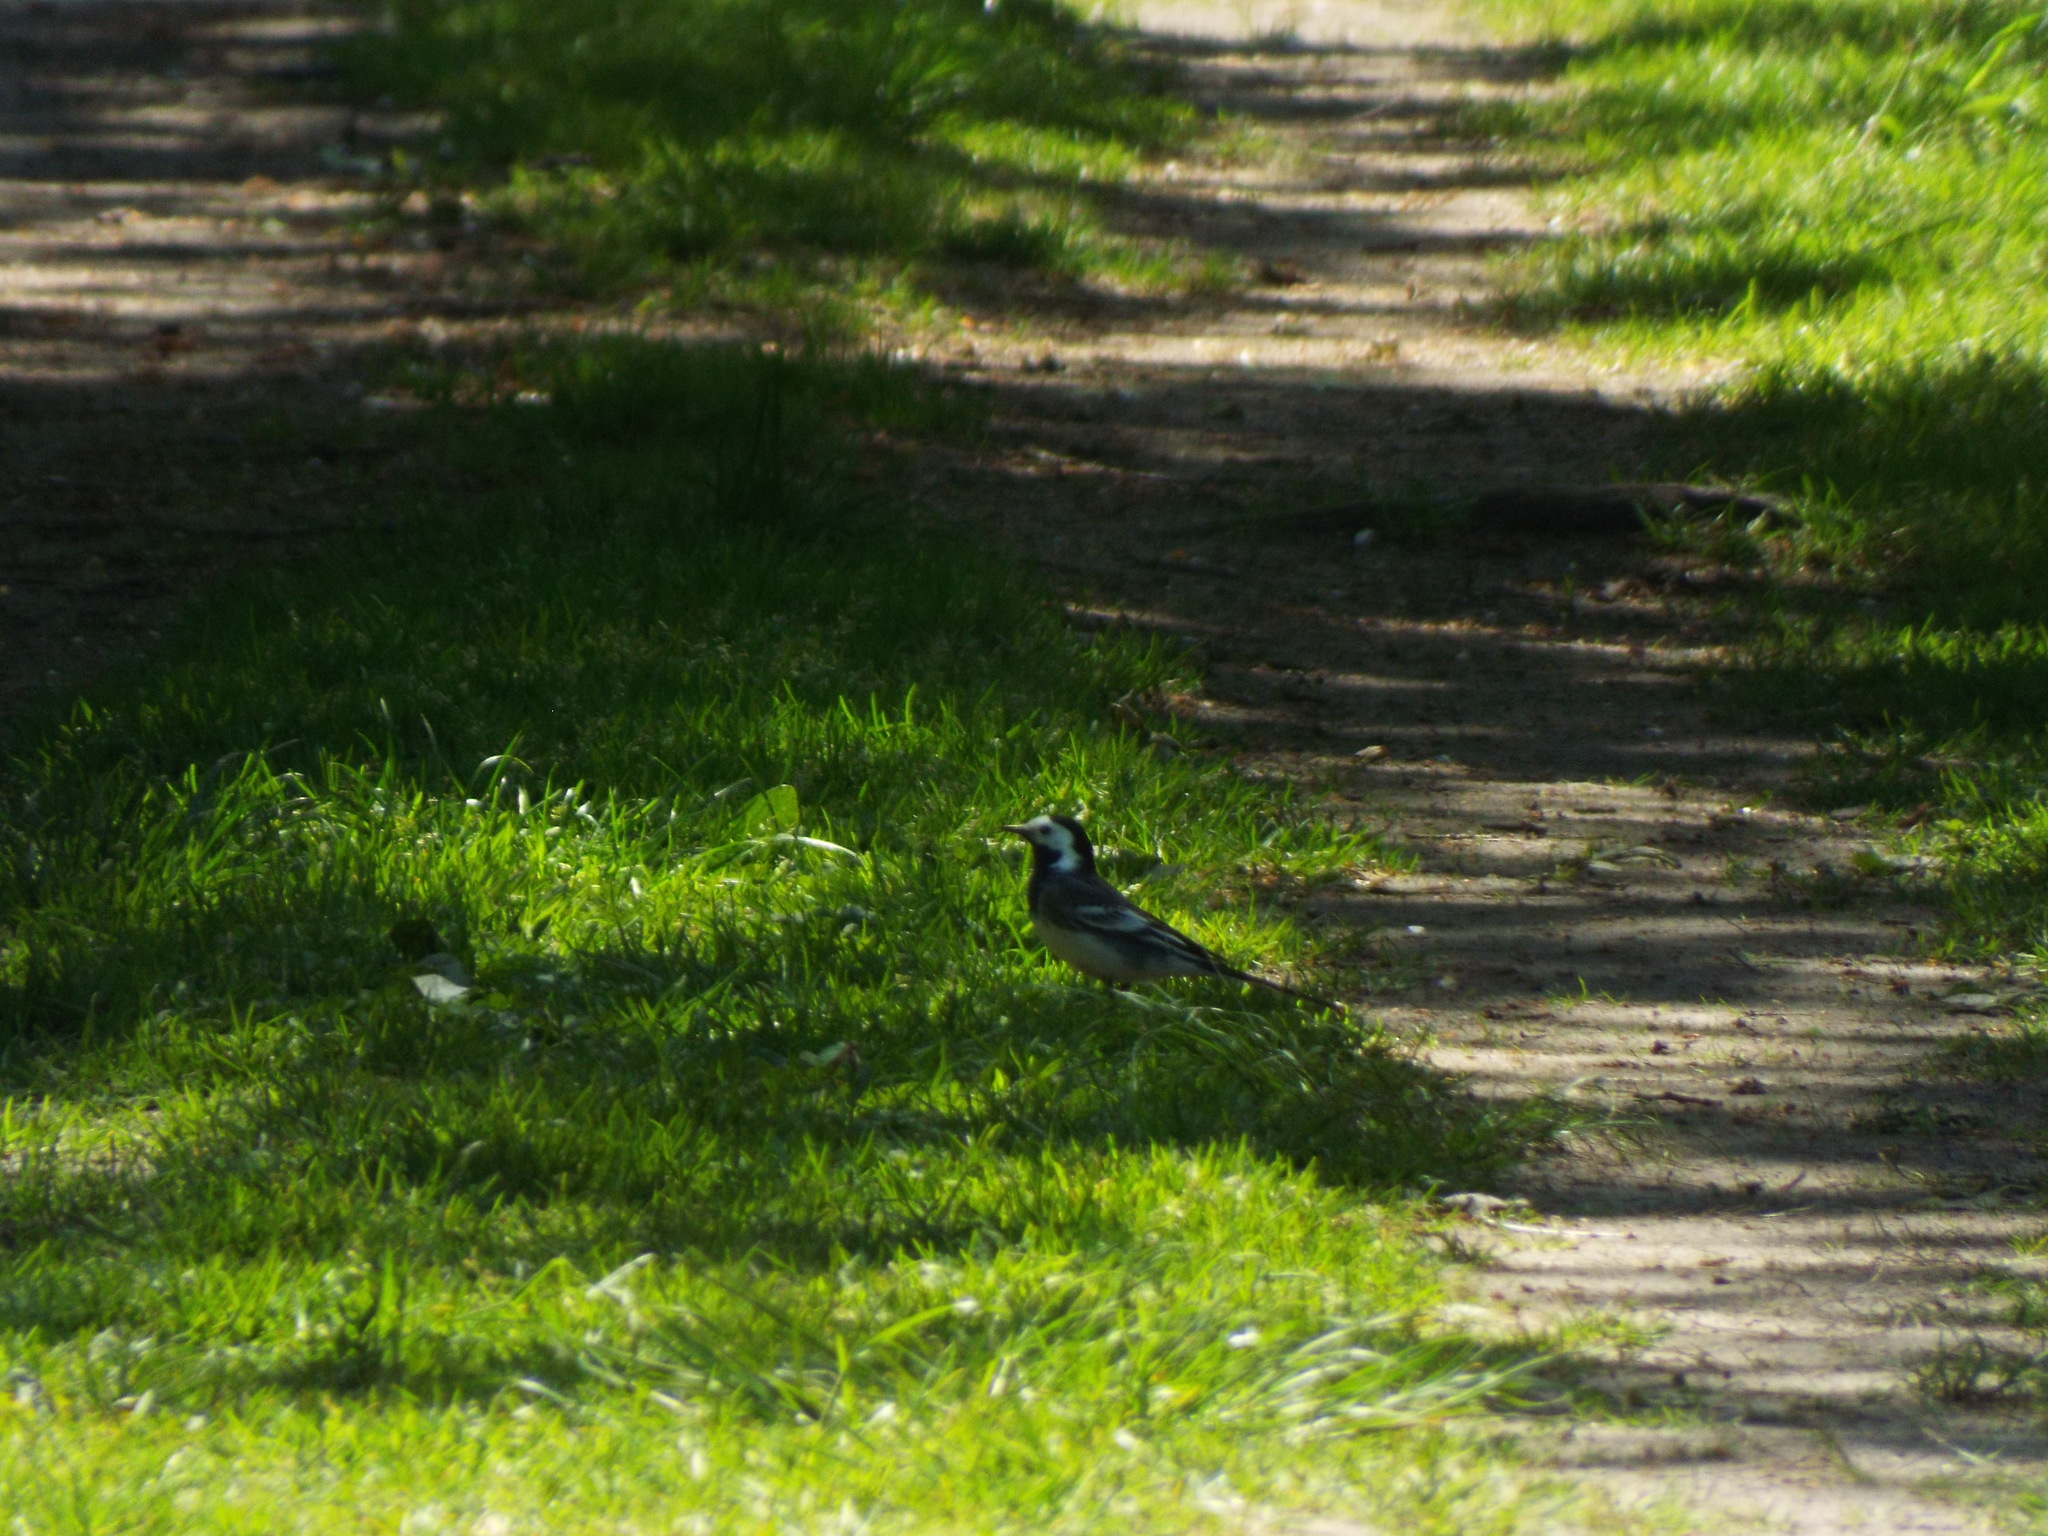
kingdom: Animalia
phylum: Chordata
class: Aves
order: Passeriformes
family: Motacillidae
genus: Motacilla
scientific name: Motacilla alba
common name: White wagtail
